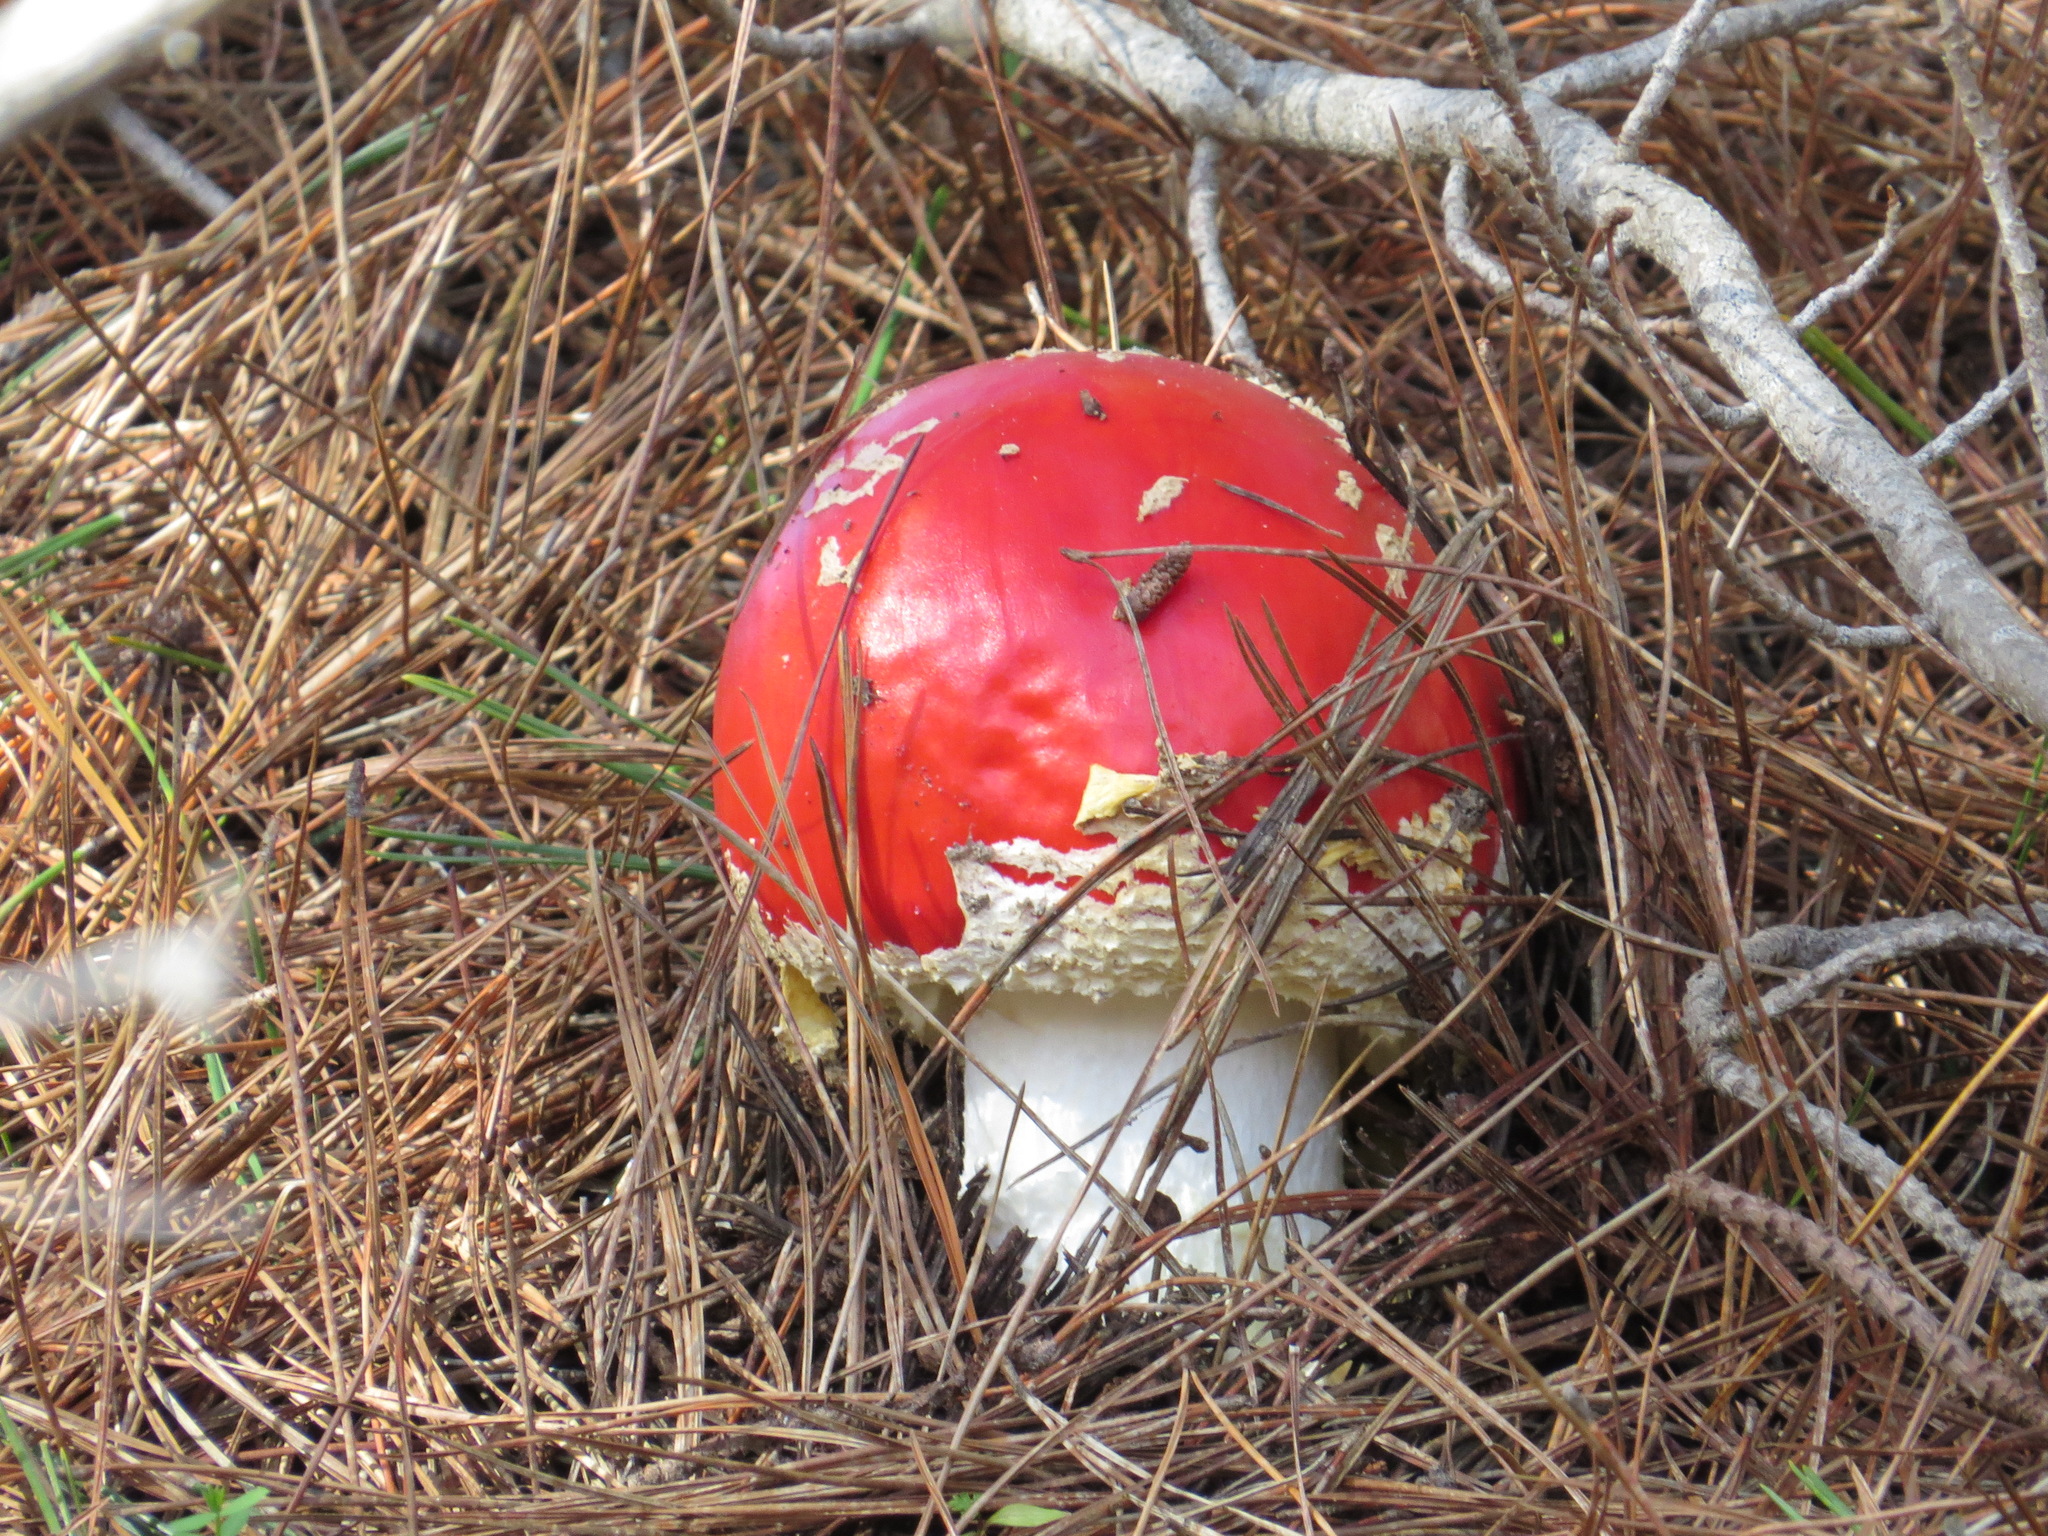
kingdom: Fungi
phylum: Basidiomycota
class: Agaricomycetes
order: Agaricales
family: Amanitaceae
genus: Amanita
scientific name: Amanita muscaria
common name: Fly agaric
